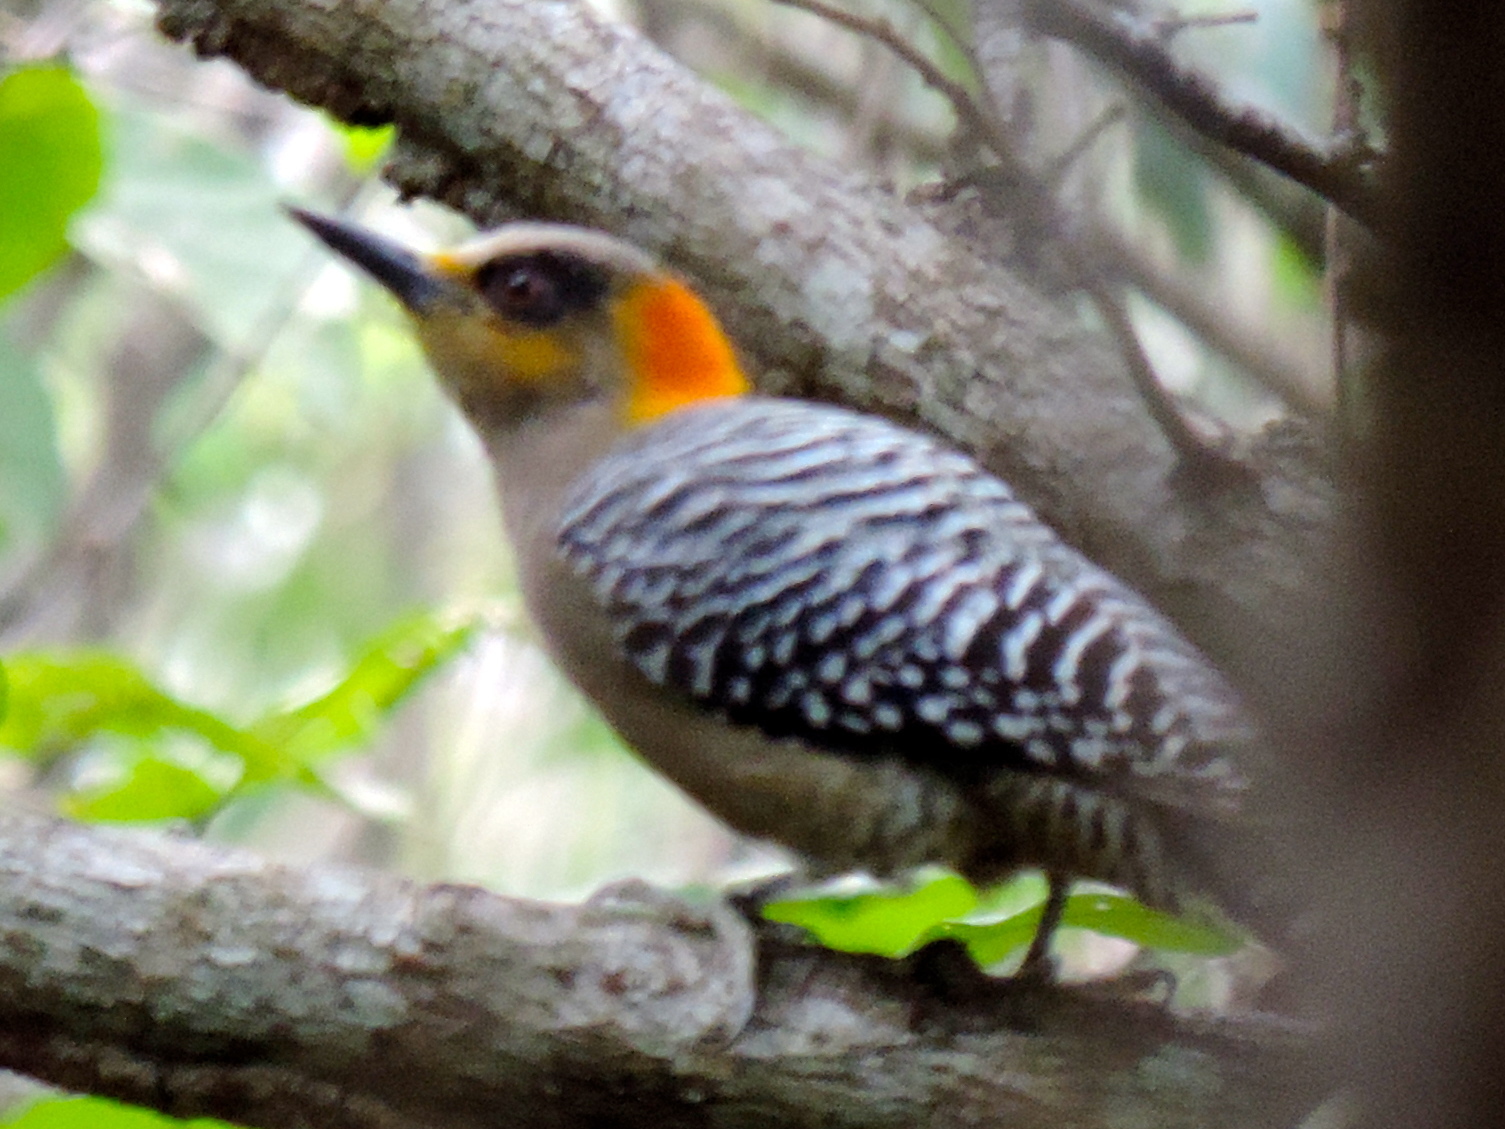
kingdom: Animalia
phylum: Chordata
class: Aves
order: Piciformes
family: Picidae
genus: Melanerpes
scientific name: Melanerpes chrysogenys
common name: Golden-cheeked woodpecker
